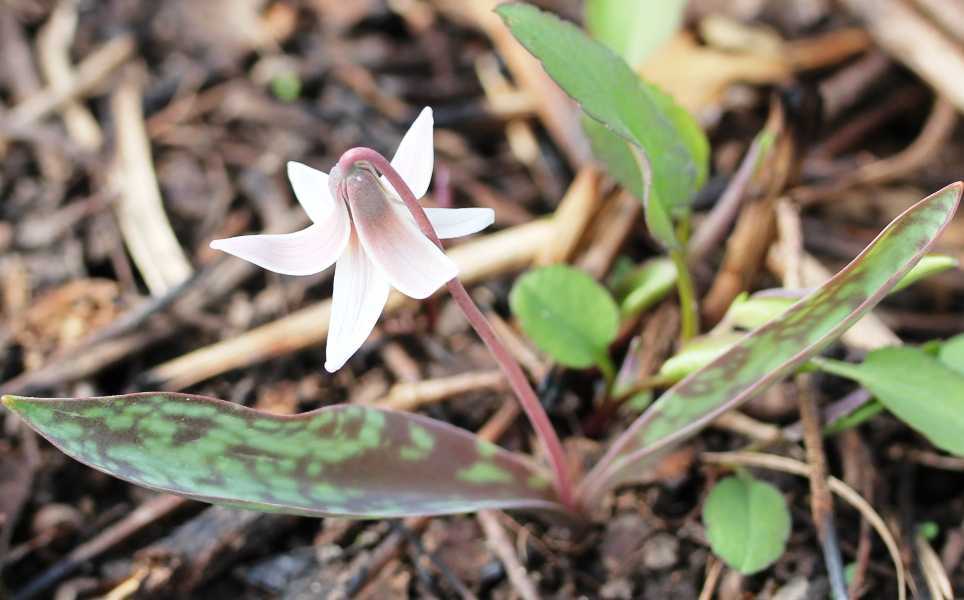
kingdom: Plantae
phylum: Tracheophyta
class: Liliopsida
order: Liliales
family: Liliaceae
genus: Erythronium
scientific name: Erythronium albidum
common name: White trout-lily
